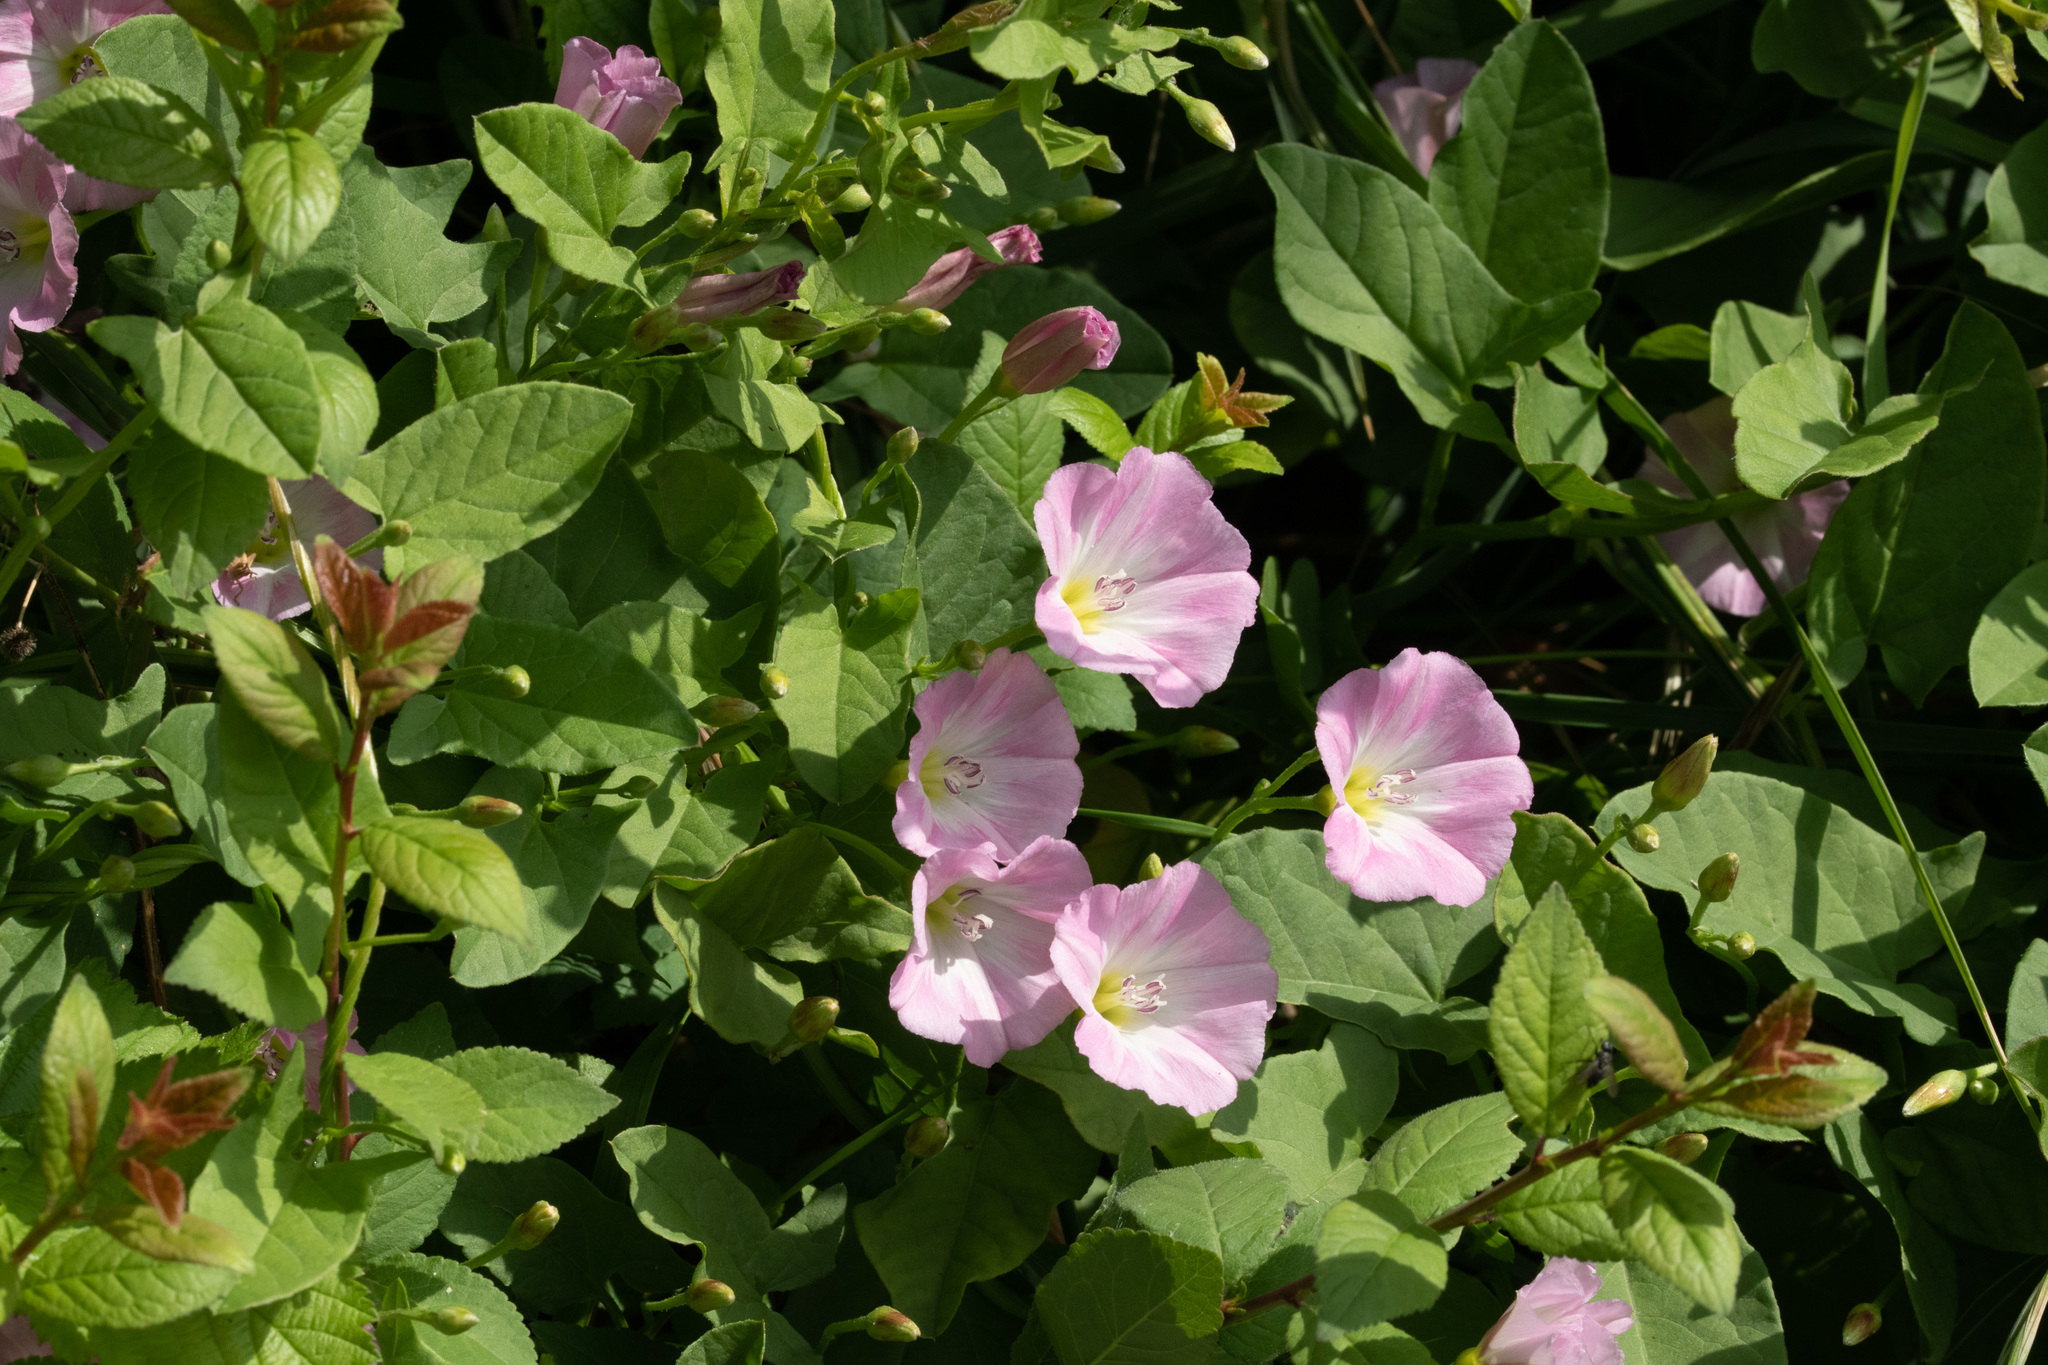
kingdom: Plantae
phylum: Tracheophyta
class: Magnoliopsida
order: Solanales
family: Convolvulaceae
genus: Convolvulus
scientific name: Convolvulus arvensis
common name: Field bindweed
